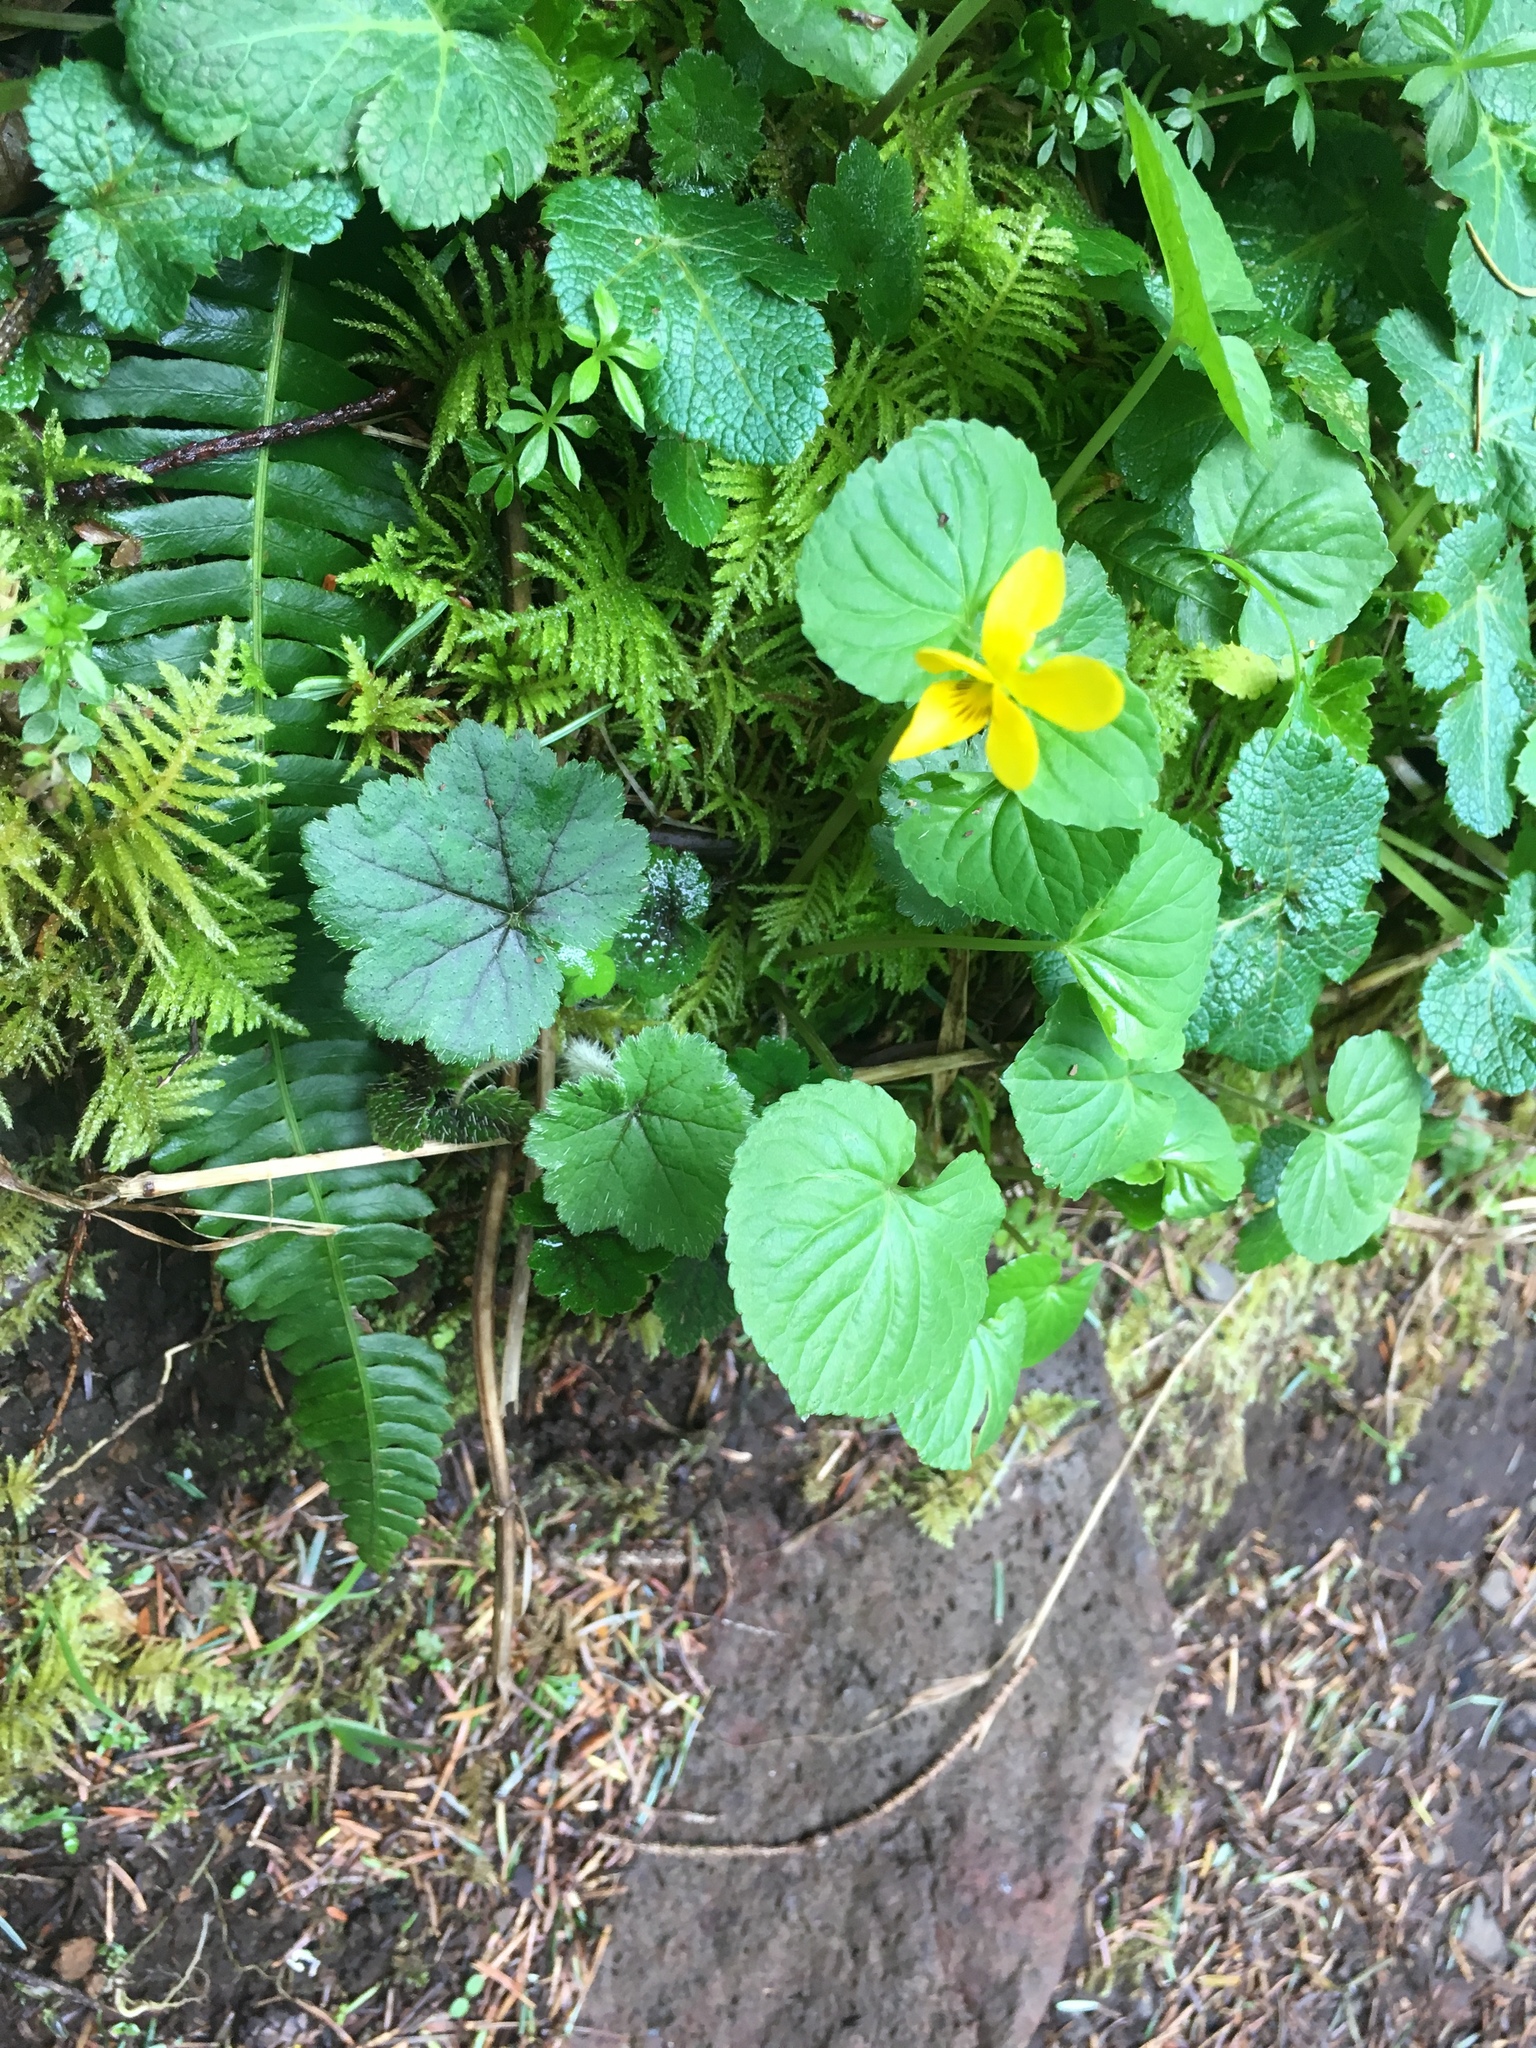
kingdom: Plantae
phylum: Tracheophyta
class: Magnoliopsida
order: Malpighiales
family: Violaceae
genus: Viola
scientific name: Viola glabella
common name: Stream violet
